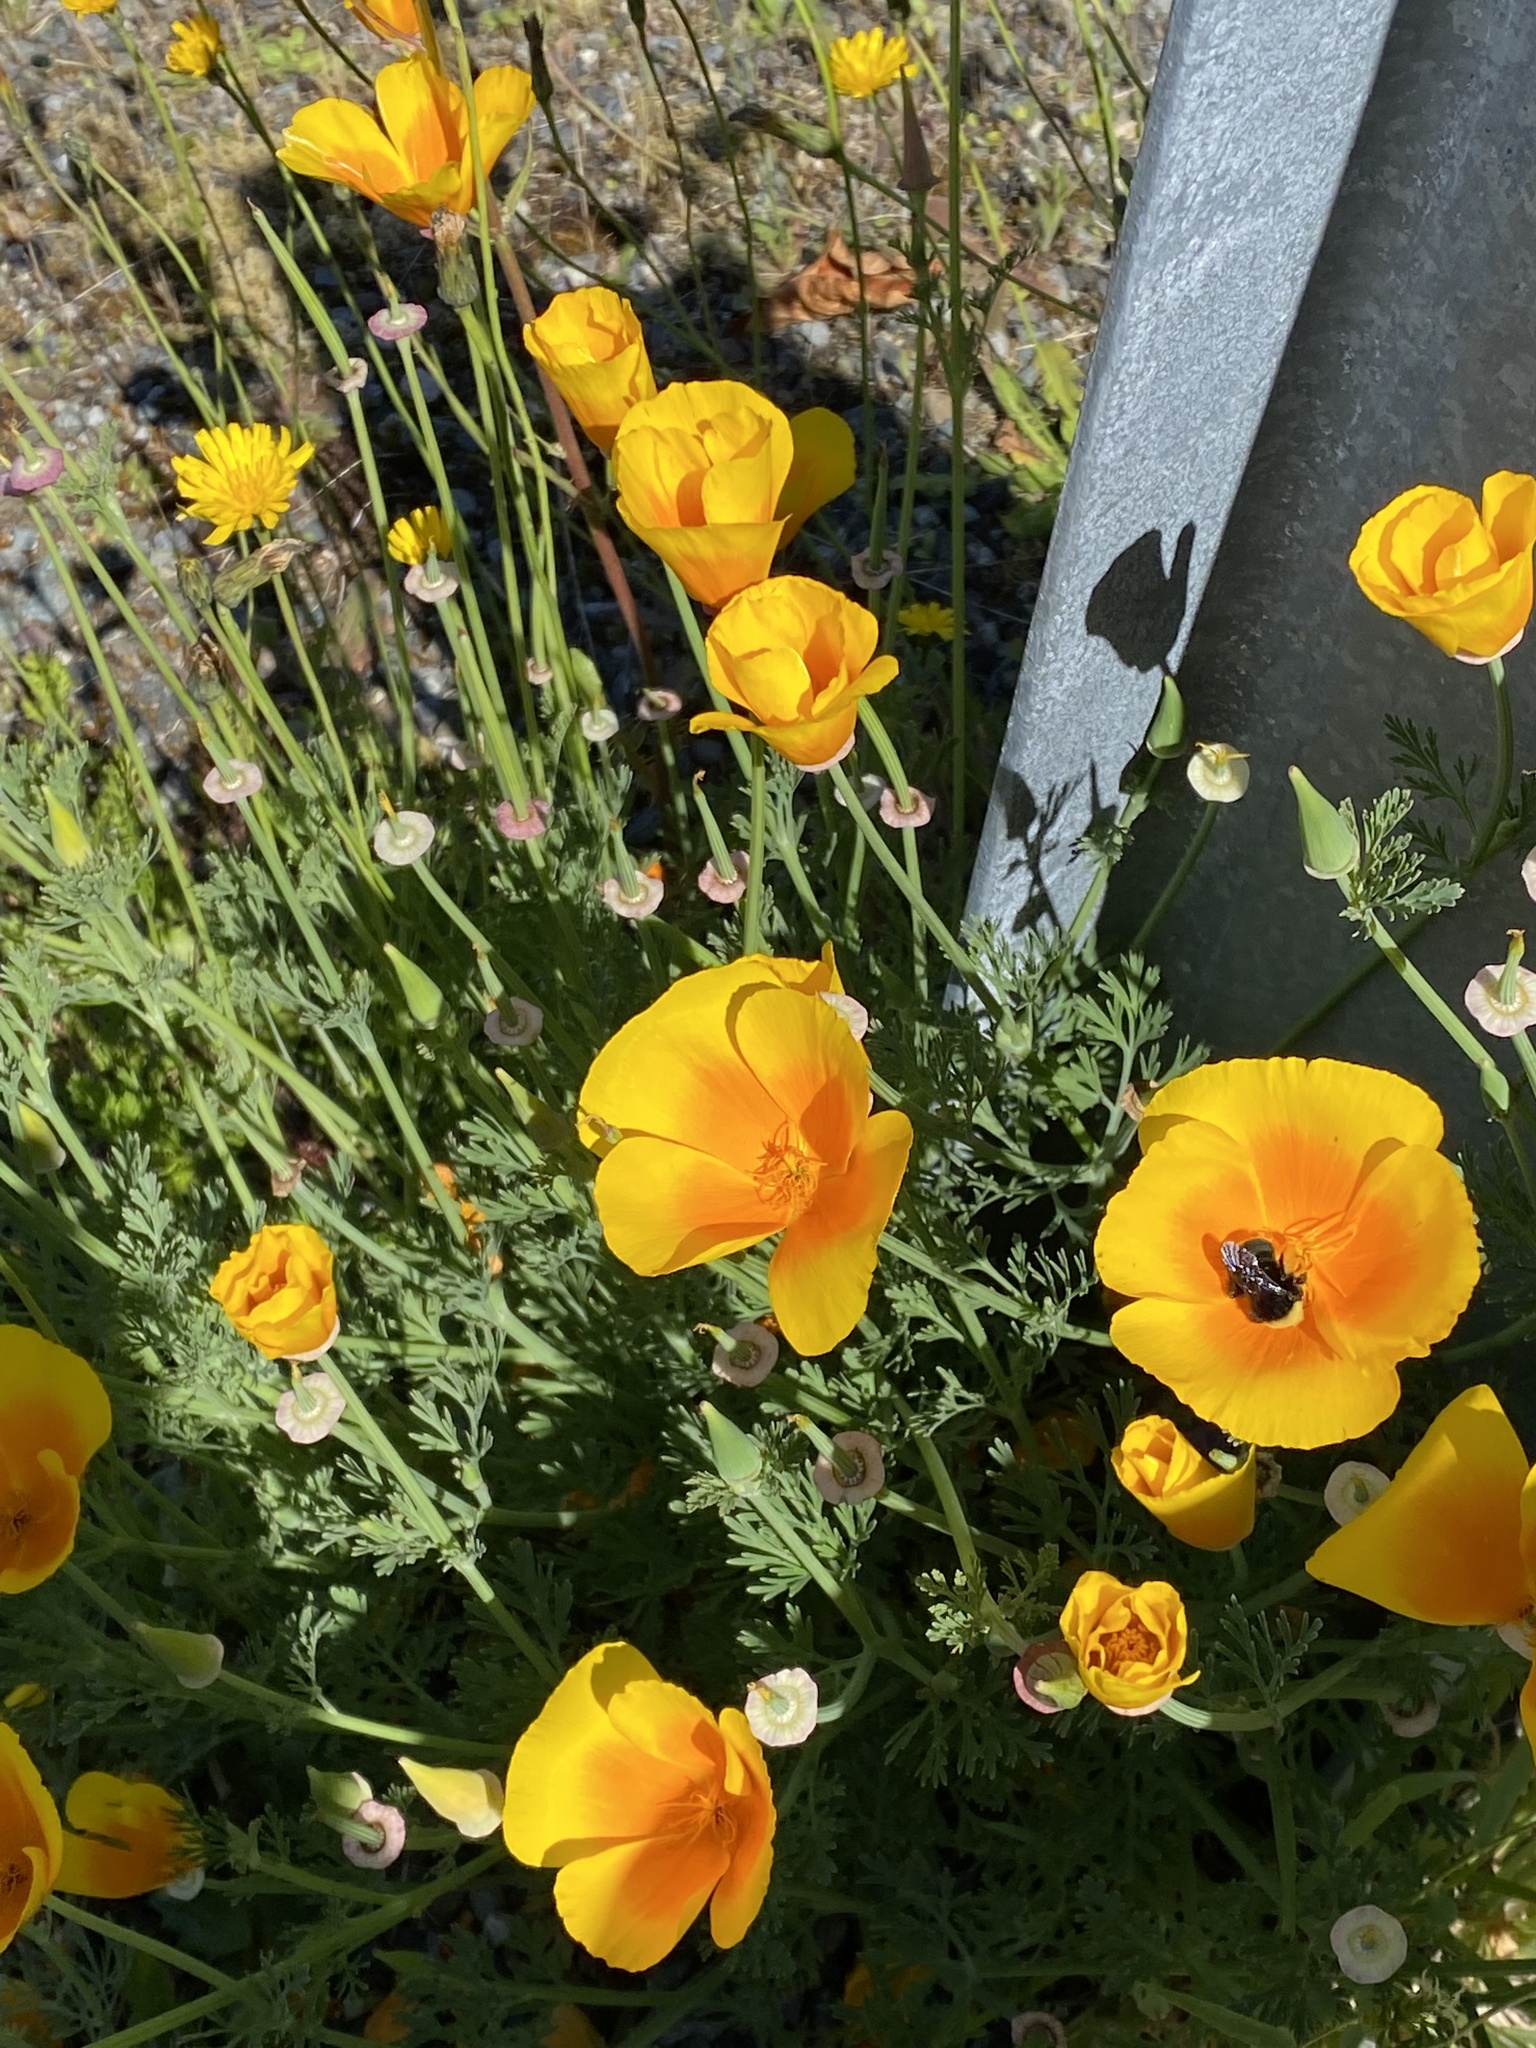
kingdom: Plantae
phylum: Tracheophyta
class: Magnoliopsida
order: Ranunculales
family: Papaveraceae
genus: Eschscholzia
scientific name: Eschscholzia californica
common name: California poppy
